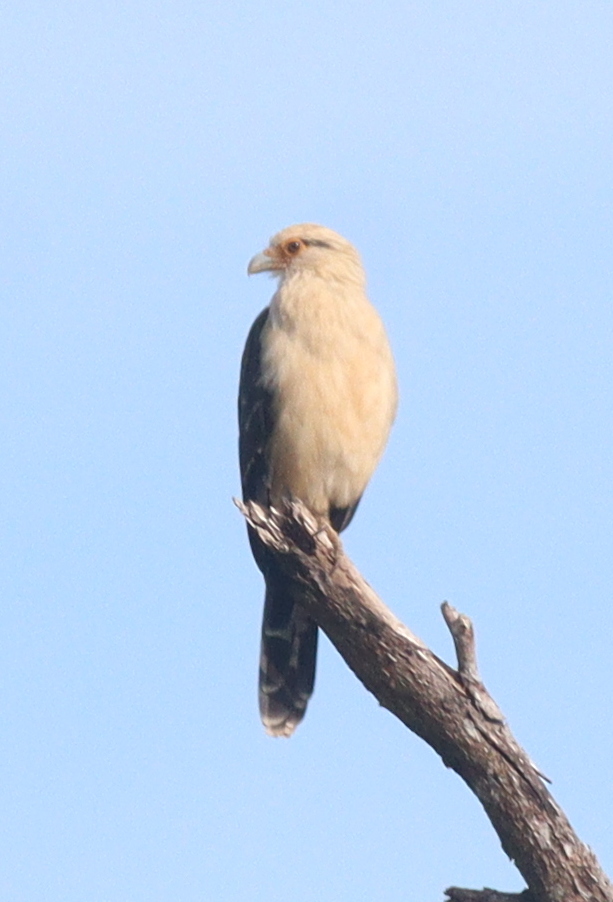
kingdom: Animalia
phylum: Chordata
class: Aves
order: Falconiformes
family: Falconidae
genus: Daptrius
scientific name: Daptrius
